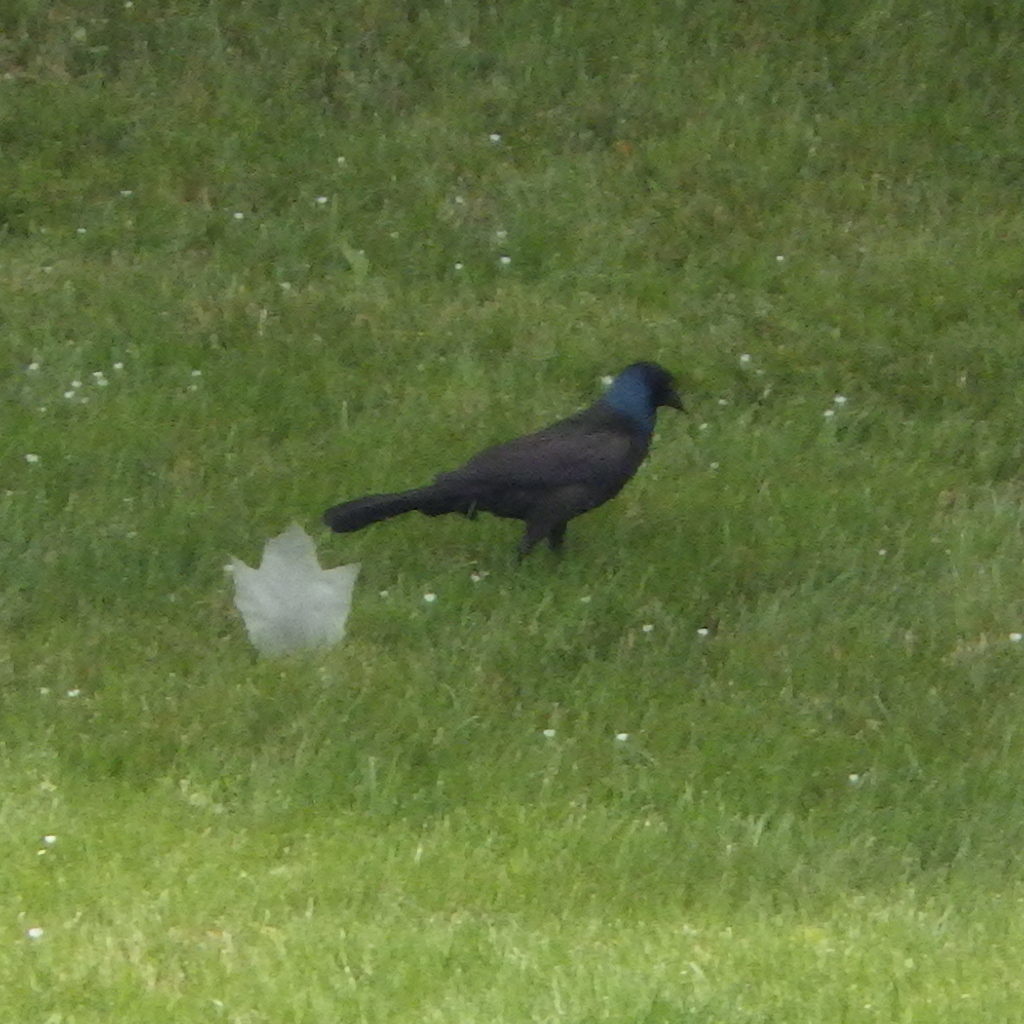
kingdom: Animalia
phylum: Chordata
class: Aves
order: Passeriformes
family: Icteridae
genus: Quiscalus
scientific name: Quiscalus quiscula
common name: Common grackle
